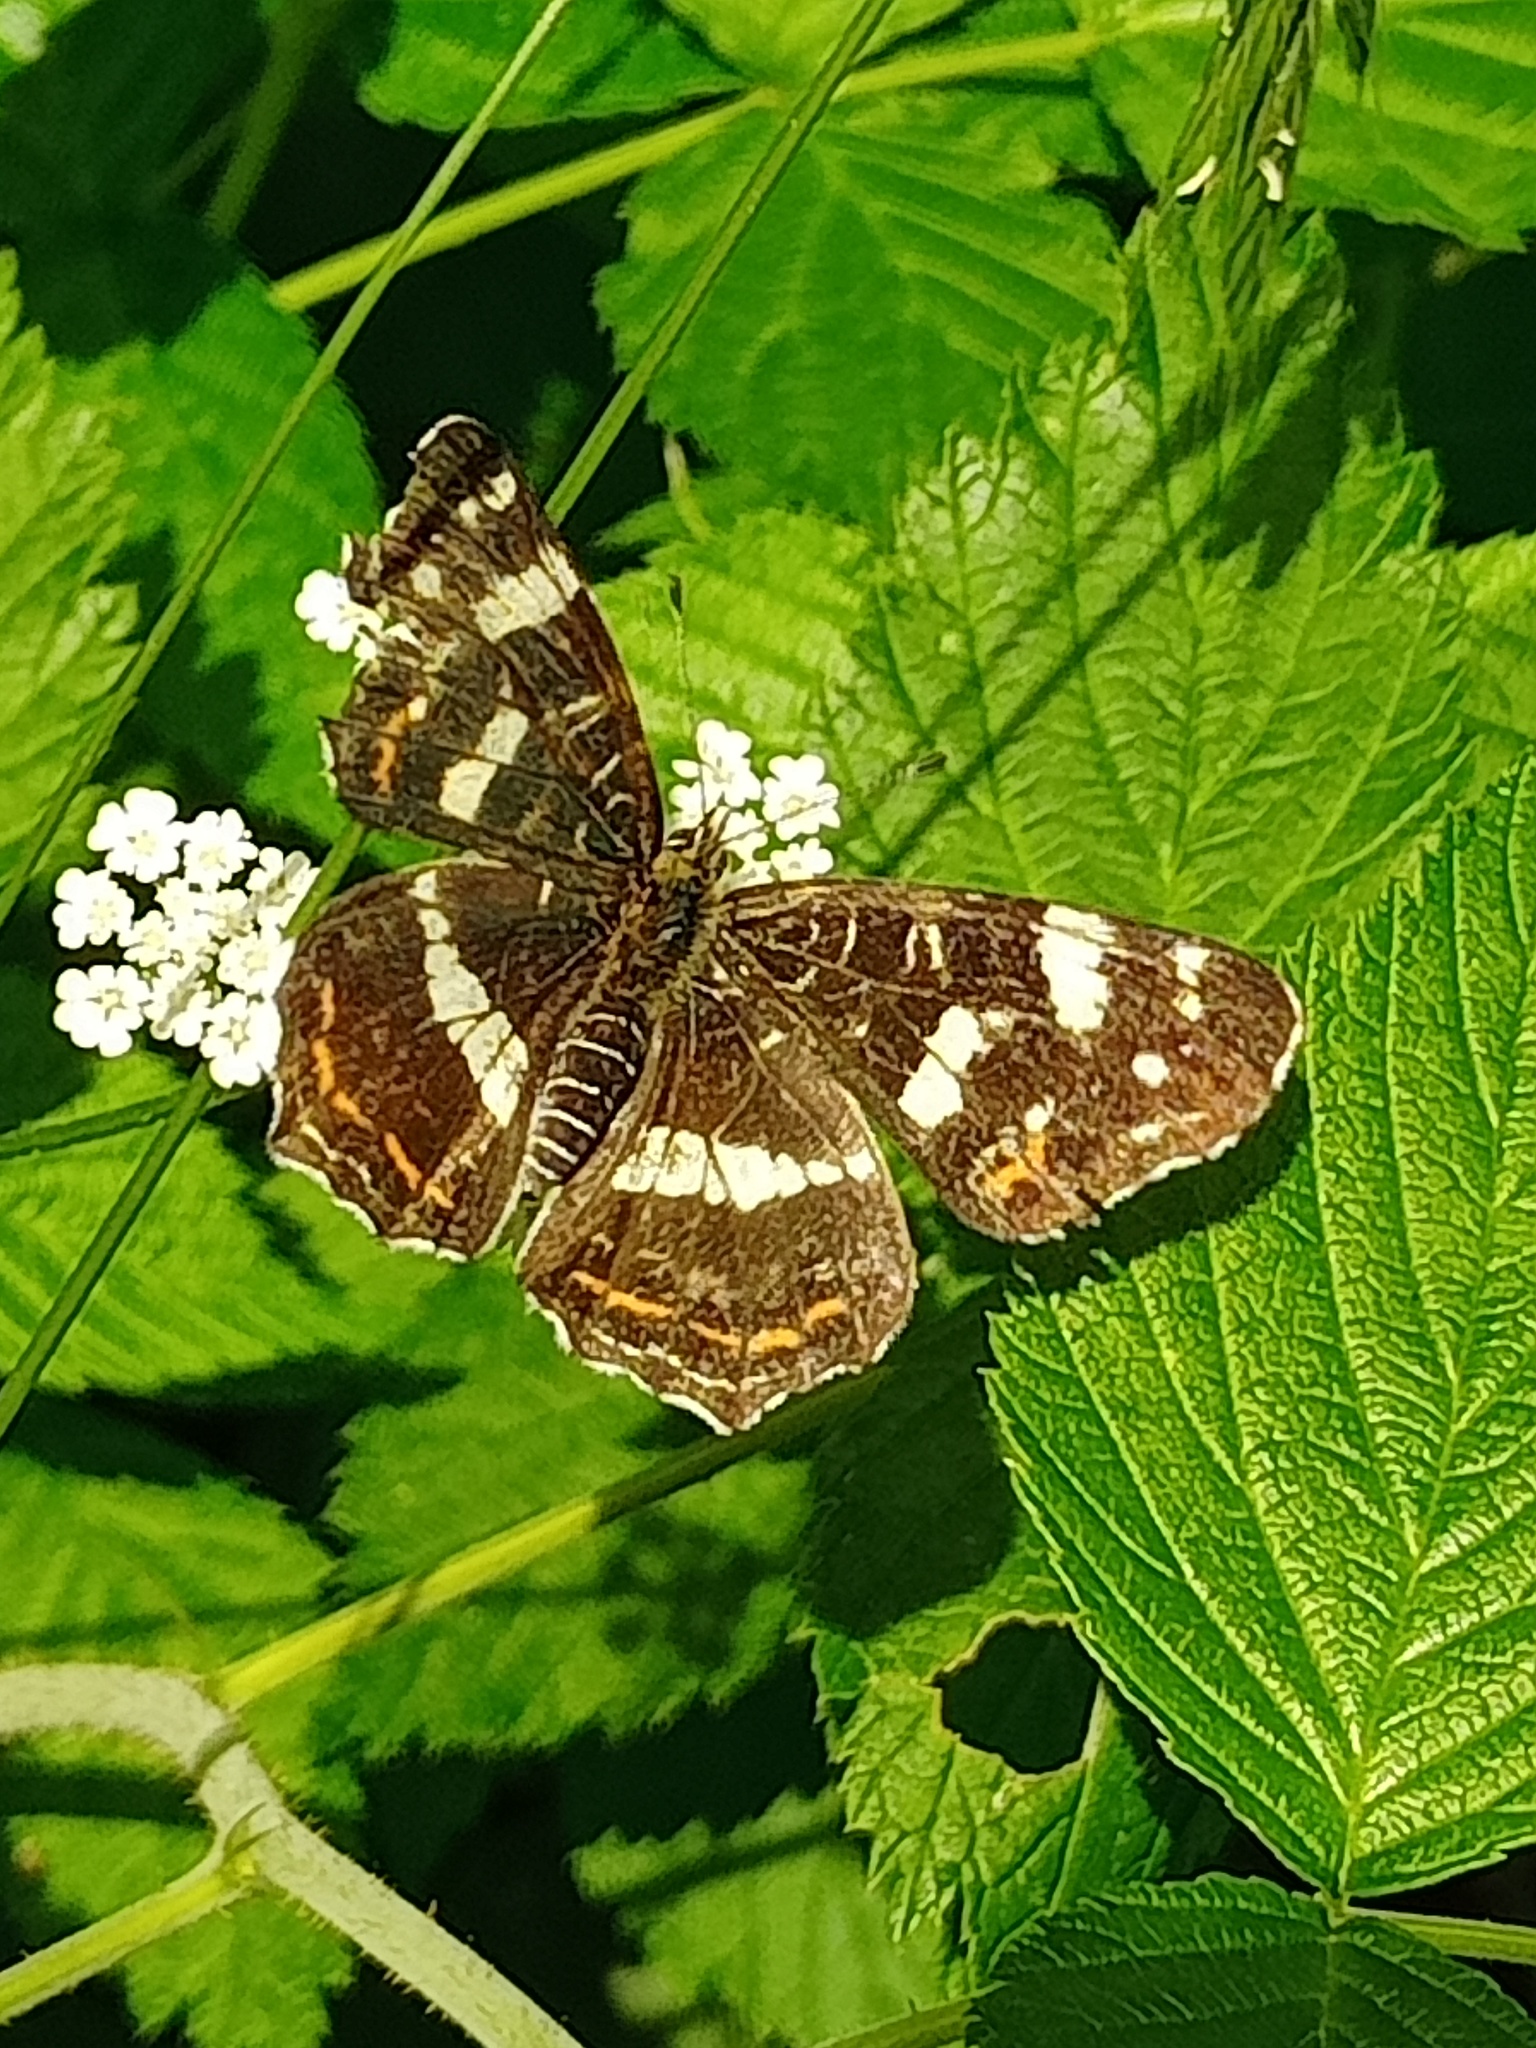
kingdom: Animalia
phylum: Arthropoda
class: Insecta
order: Lepidoptera
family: Nymphalidae
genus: Araschnia
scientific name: Araschnia levana
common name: Map butterfly
